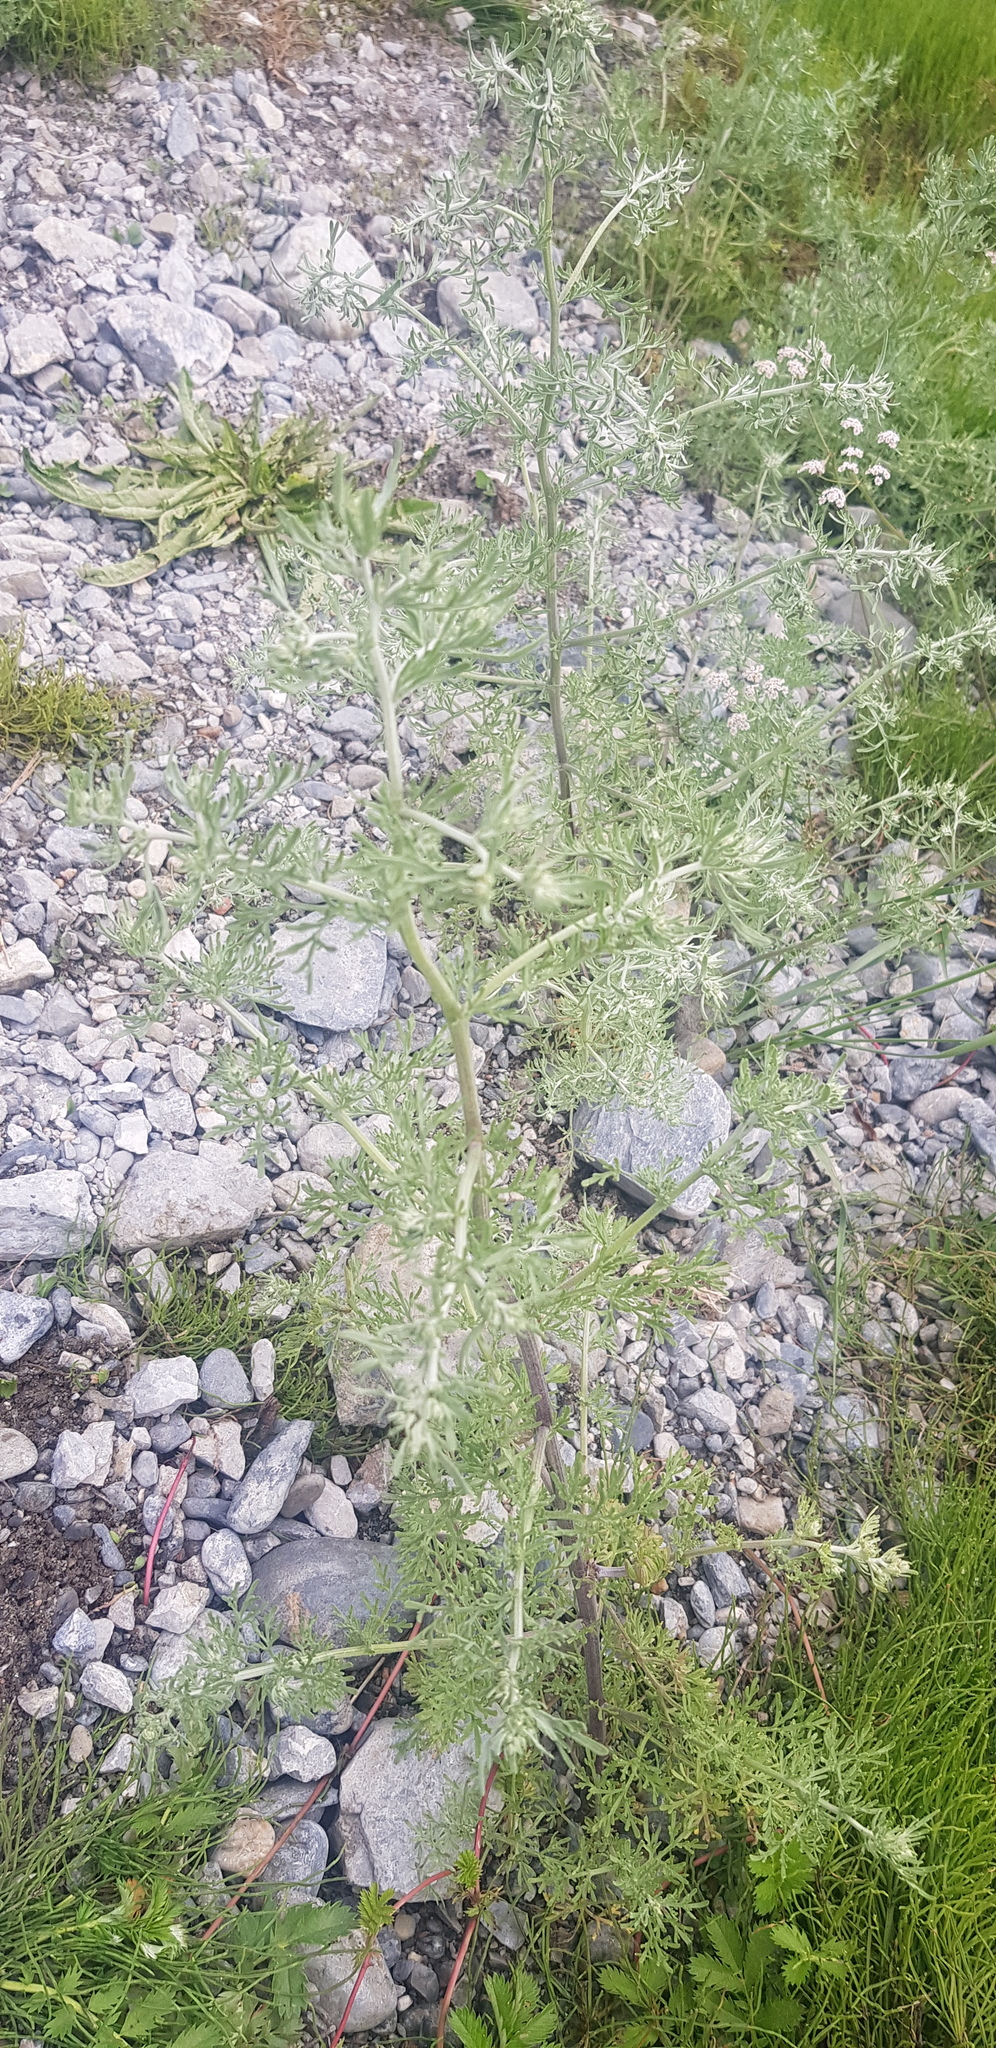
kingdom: Plantae
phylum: Tracheophyta
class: Magnoliopsida
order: Asterales
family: Asteraceae
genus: Artemisia
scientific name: Artemisia sieversiana
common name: Sieversian wormwood
